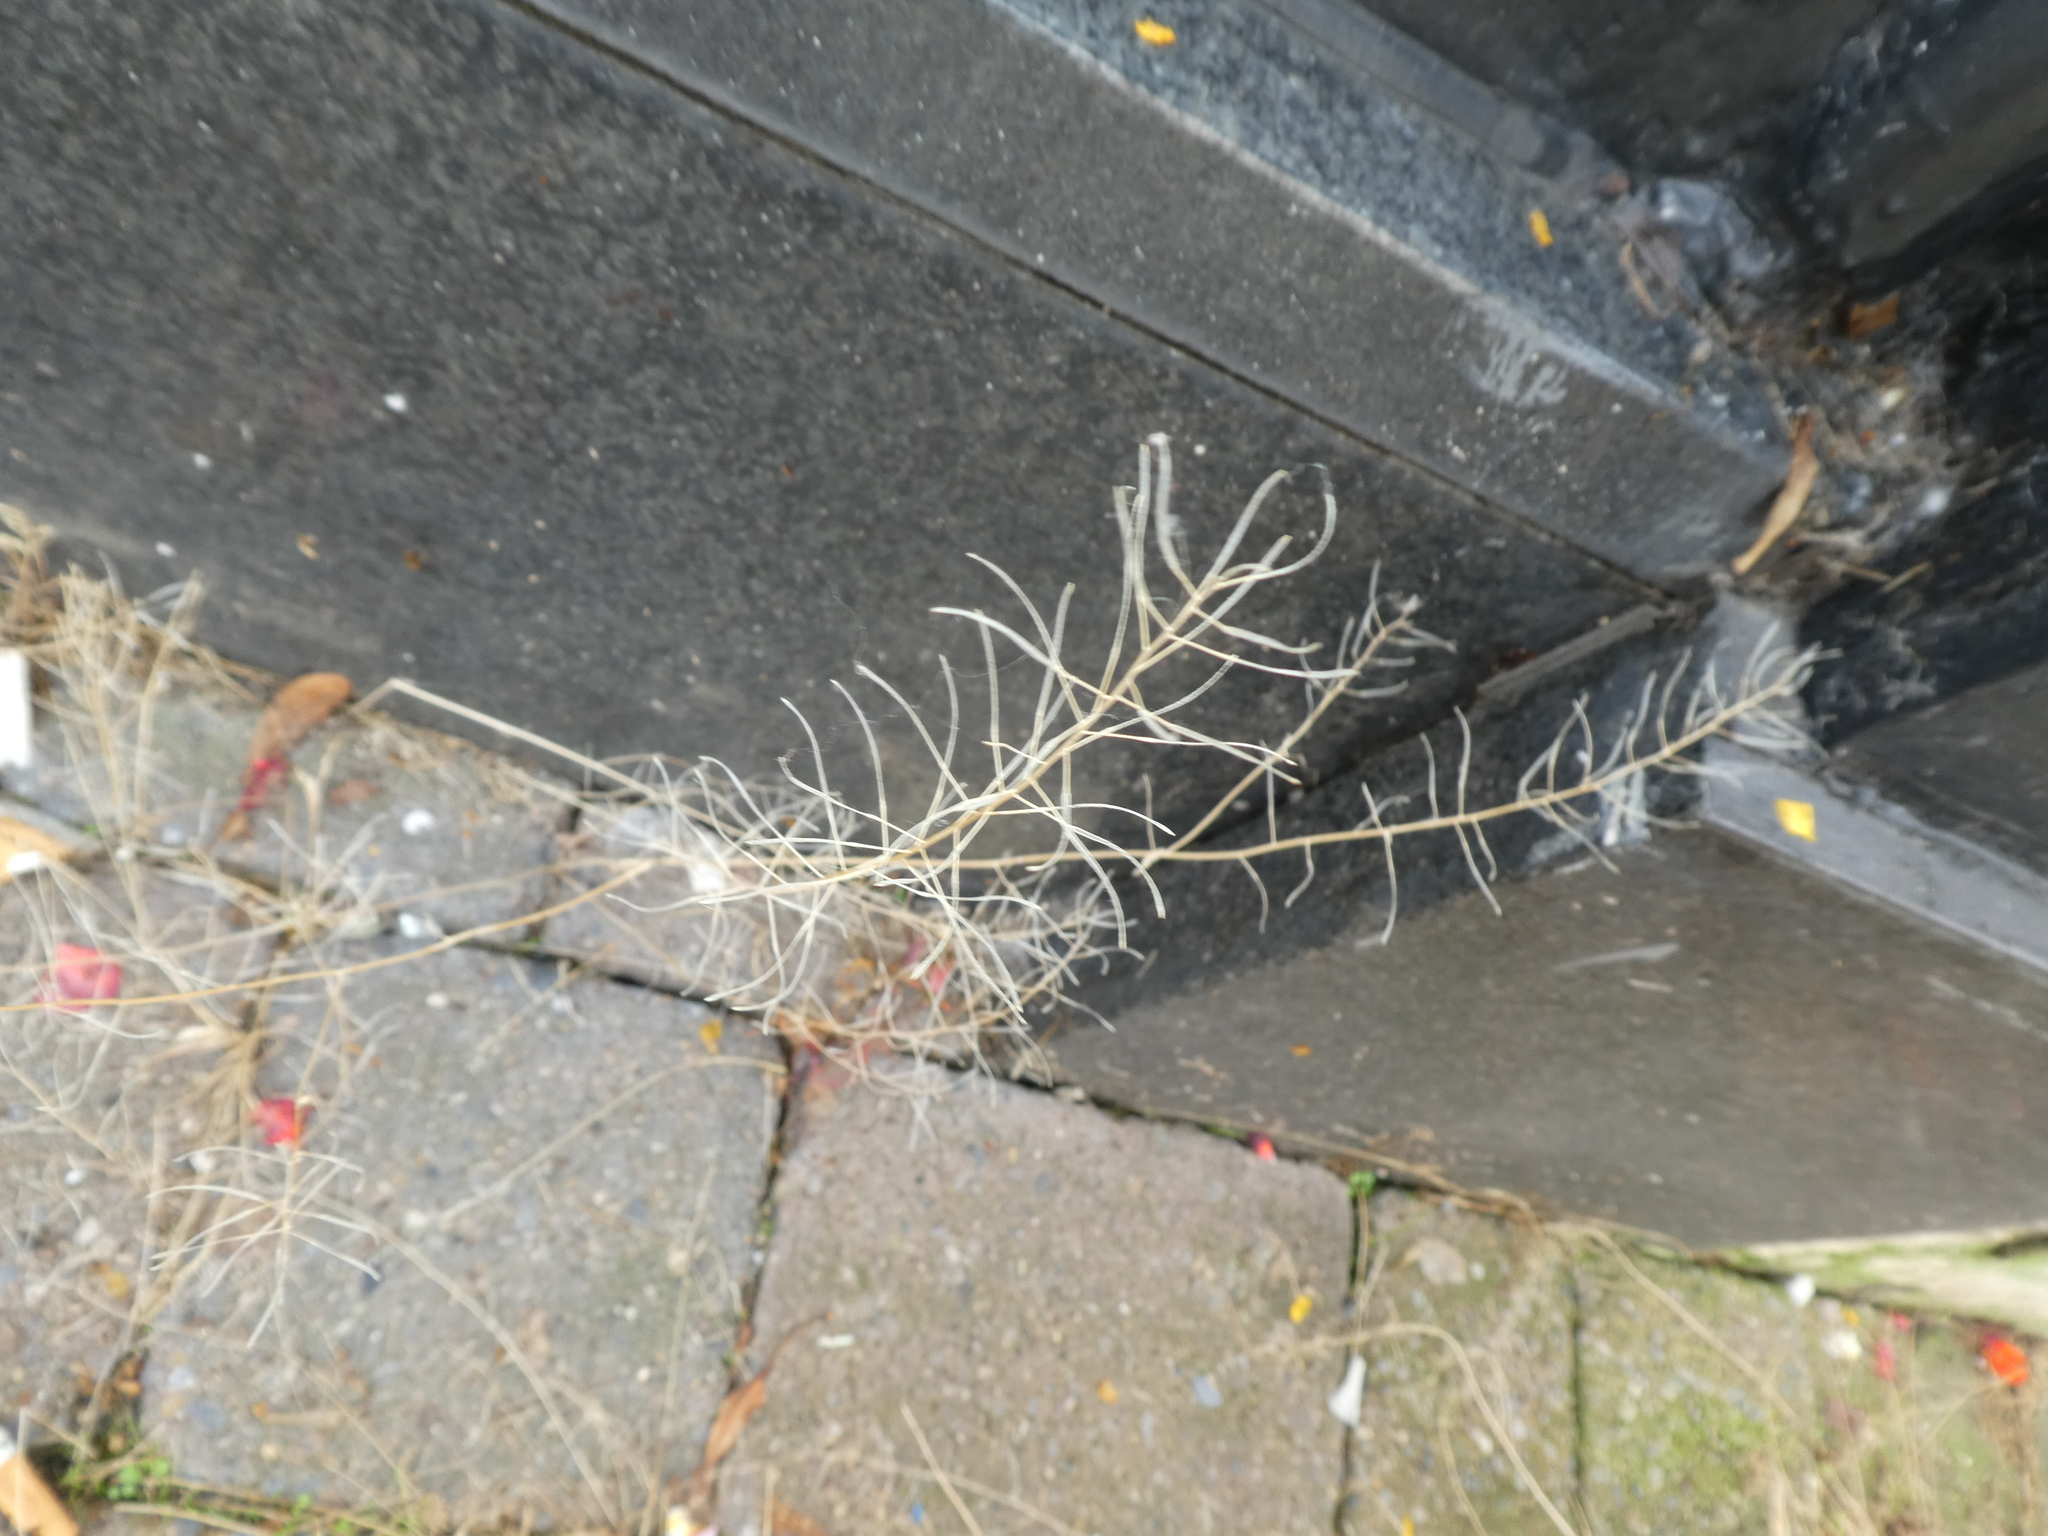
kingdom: Plantae
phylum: Tracheophyta
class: Magnoliopsida
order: Brassicales
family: Brassicaceae
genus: Arabidopsis
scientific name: Arabidopsis thaliana
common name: Thale cress
